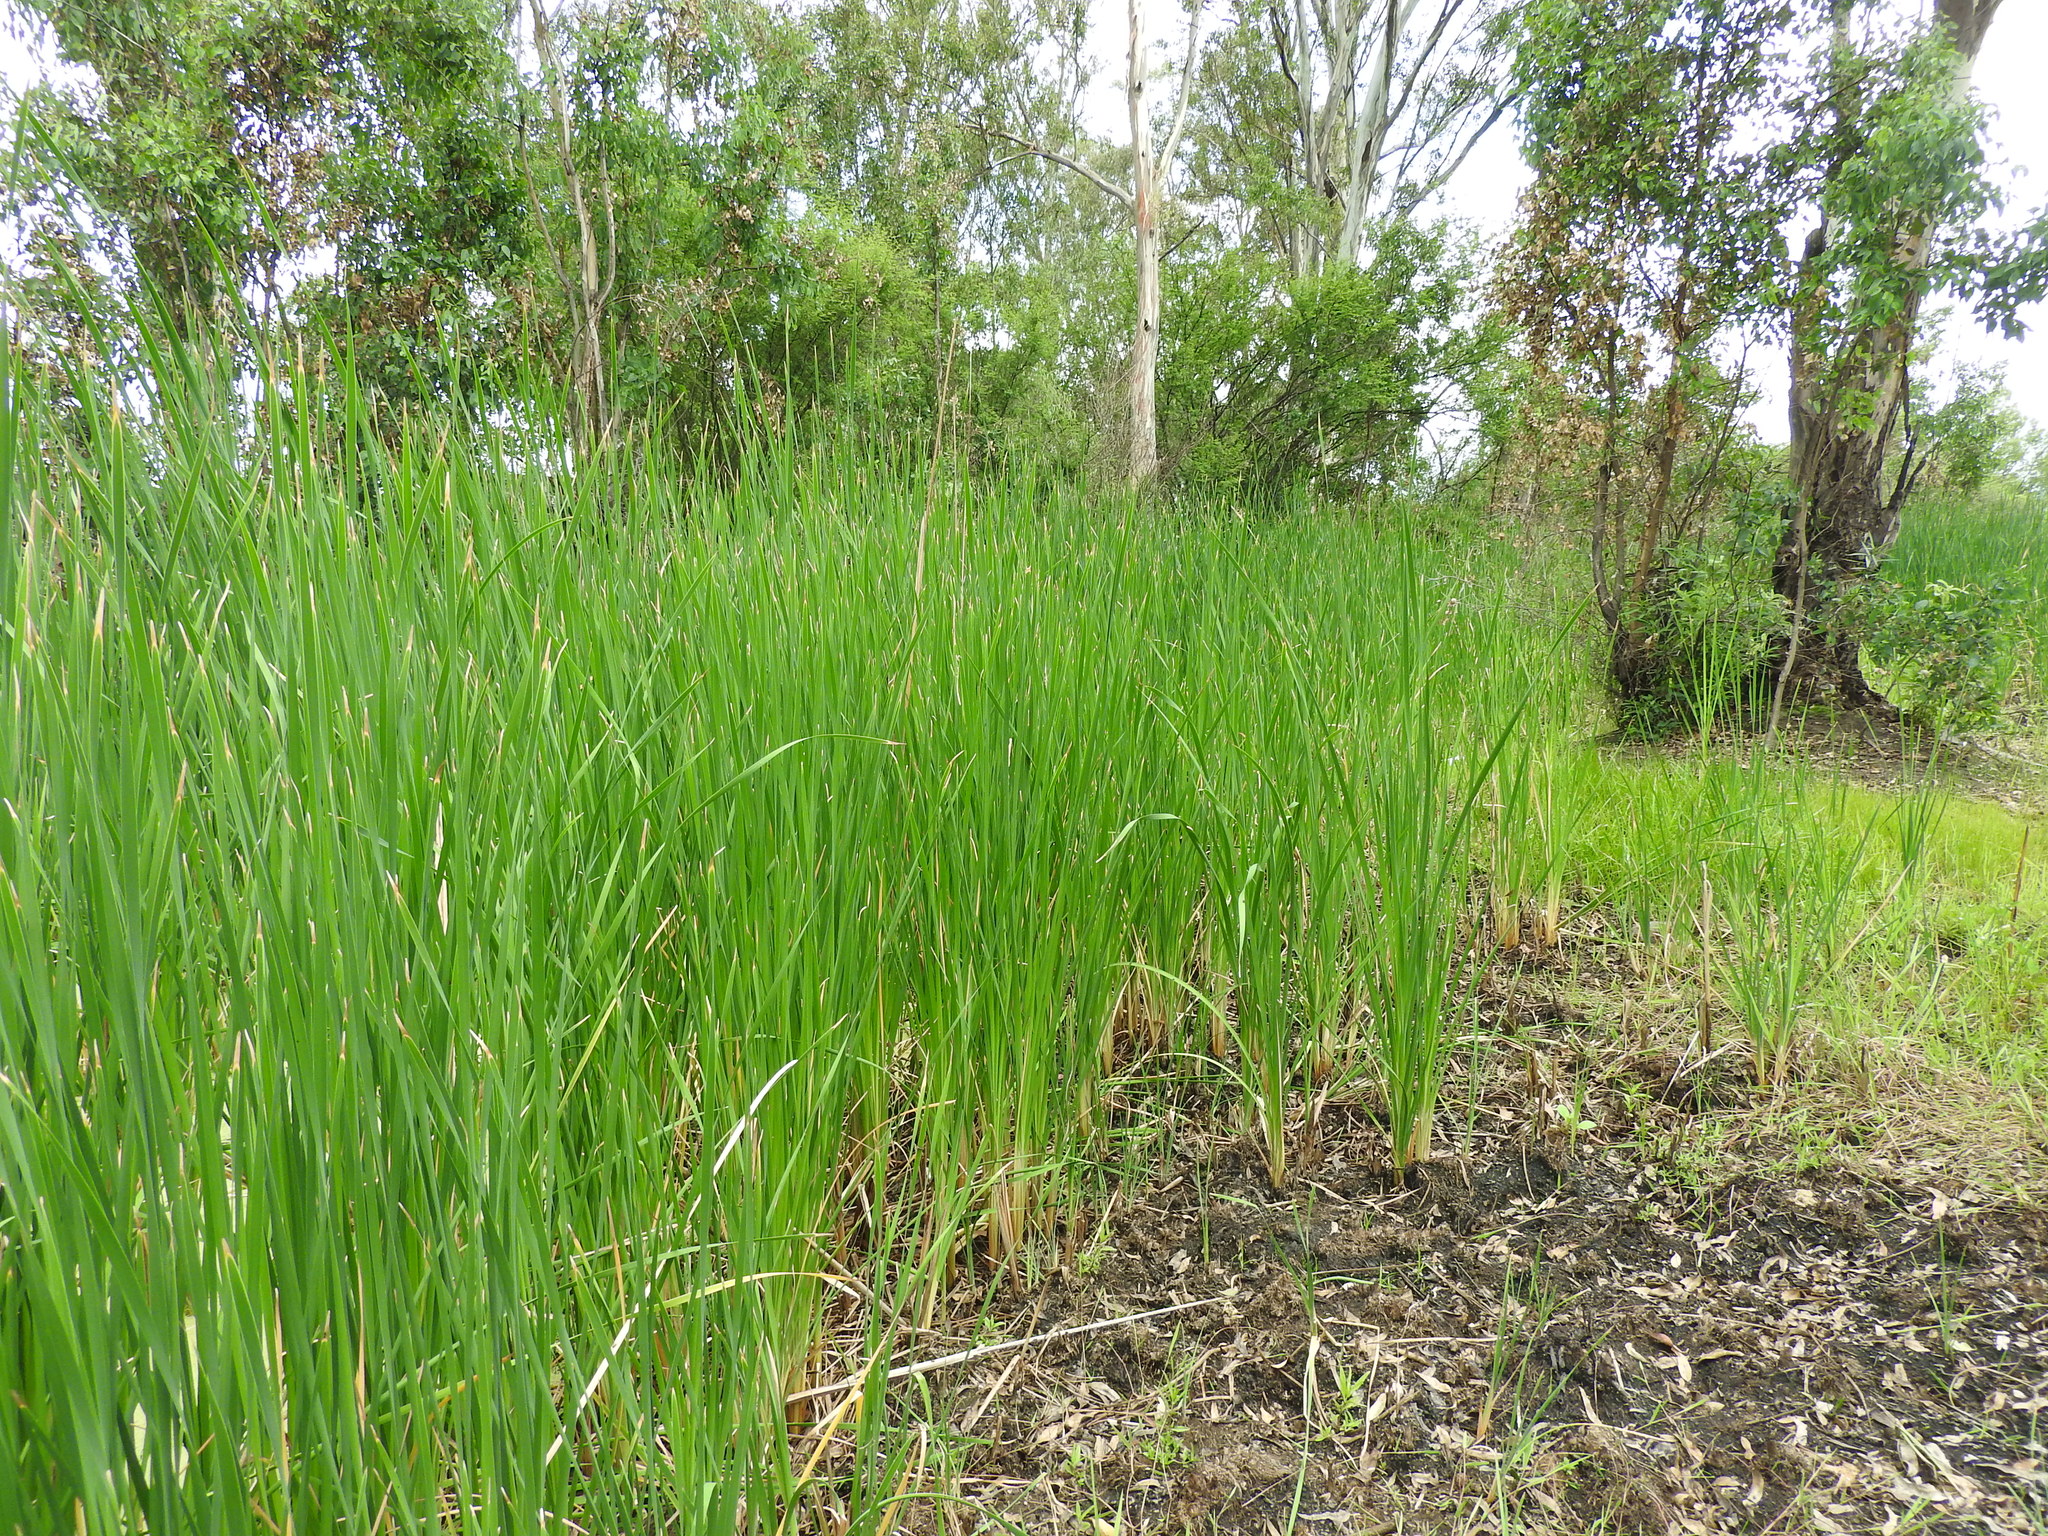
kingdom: Plantae
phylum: Tracheophyta
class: Liliopsida
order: Poales
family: Typhaceae
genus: Typha
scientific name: Typha domingensis
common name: Southern cattail
